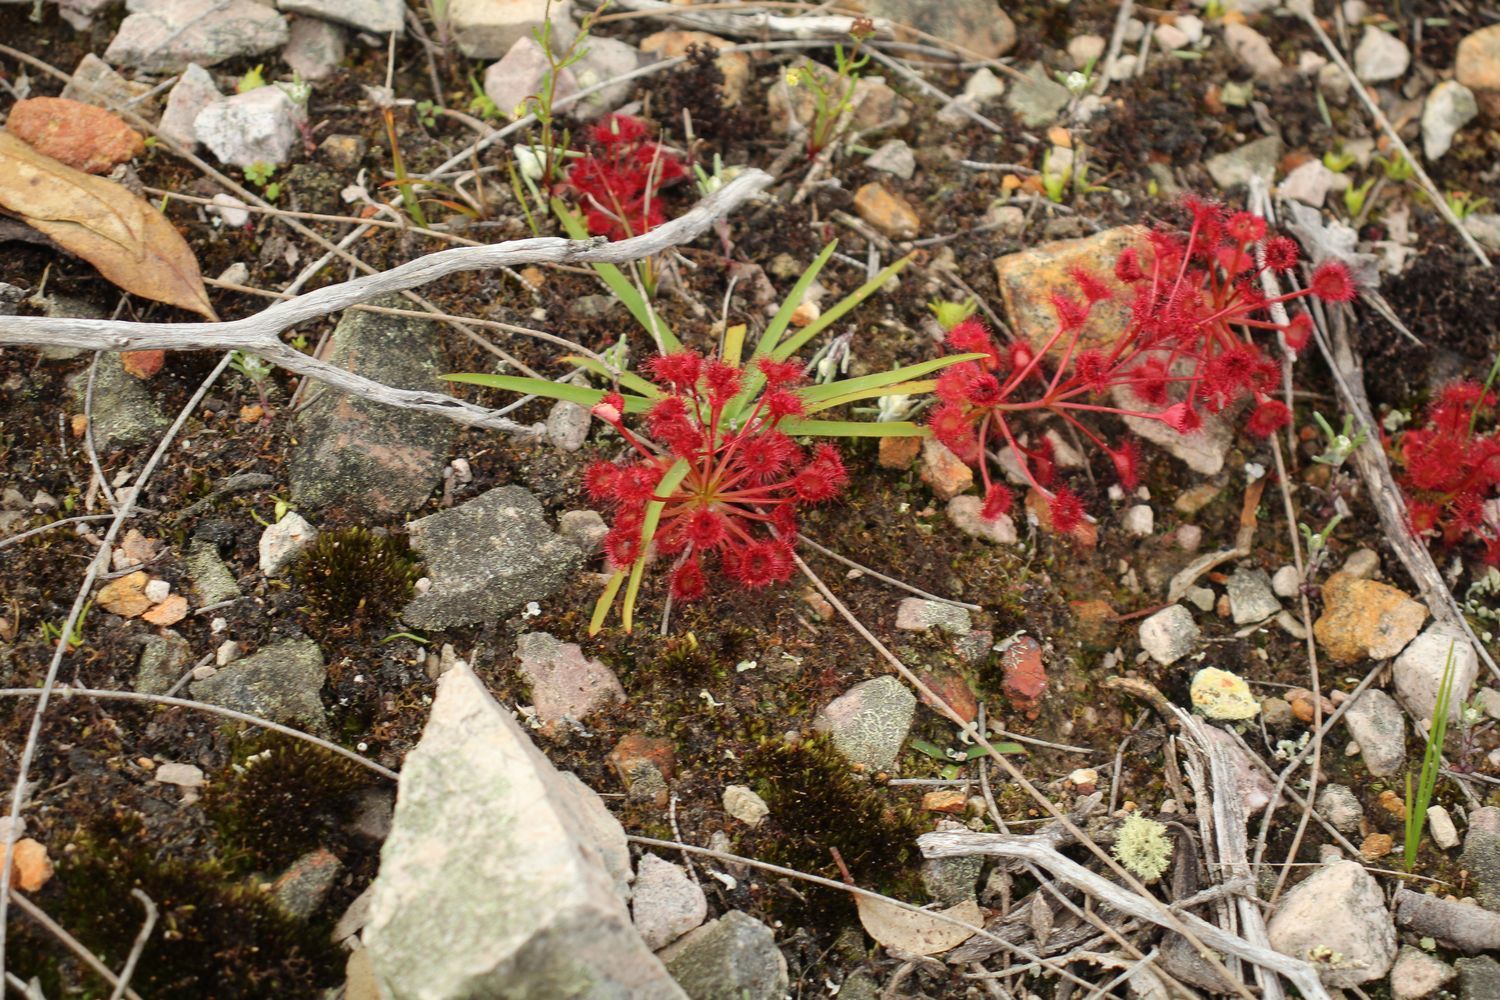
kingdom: Plantae
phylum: Tracheophyta
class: Magnoliopsida
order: Caryophyllales
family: Droseraceae
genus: Drosera
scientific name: Drosera stolonifera
